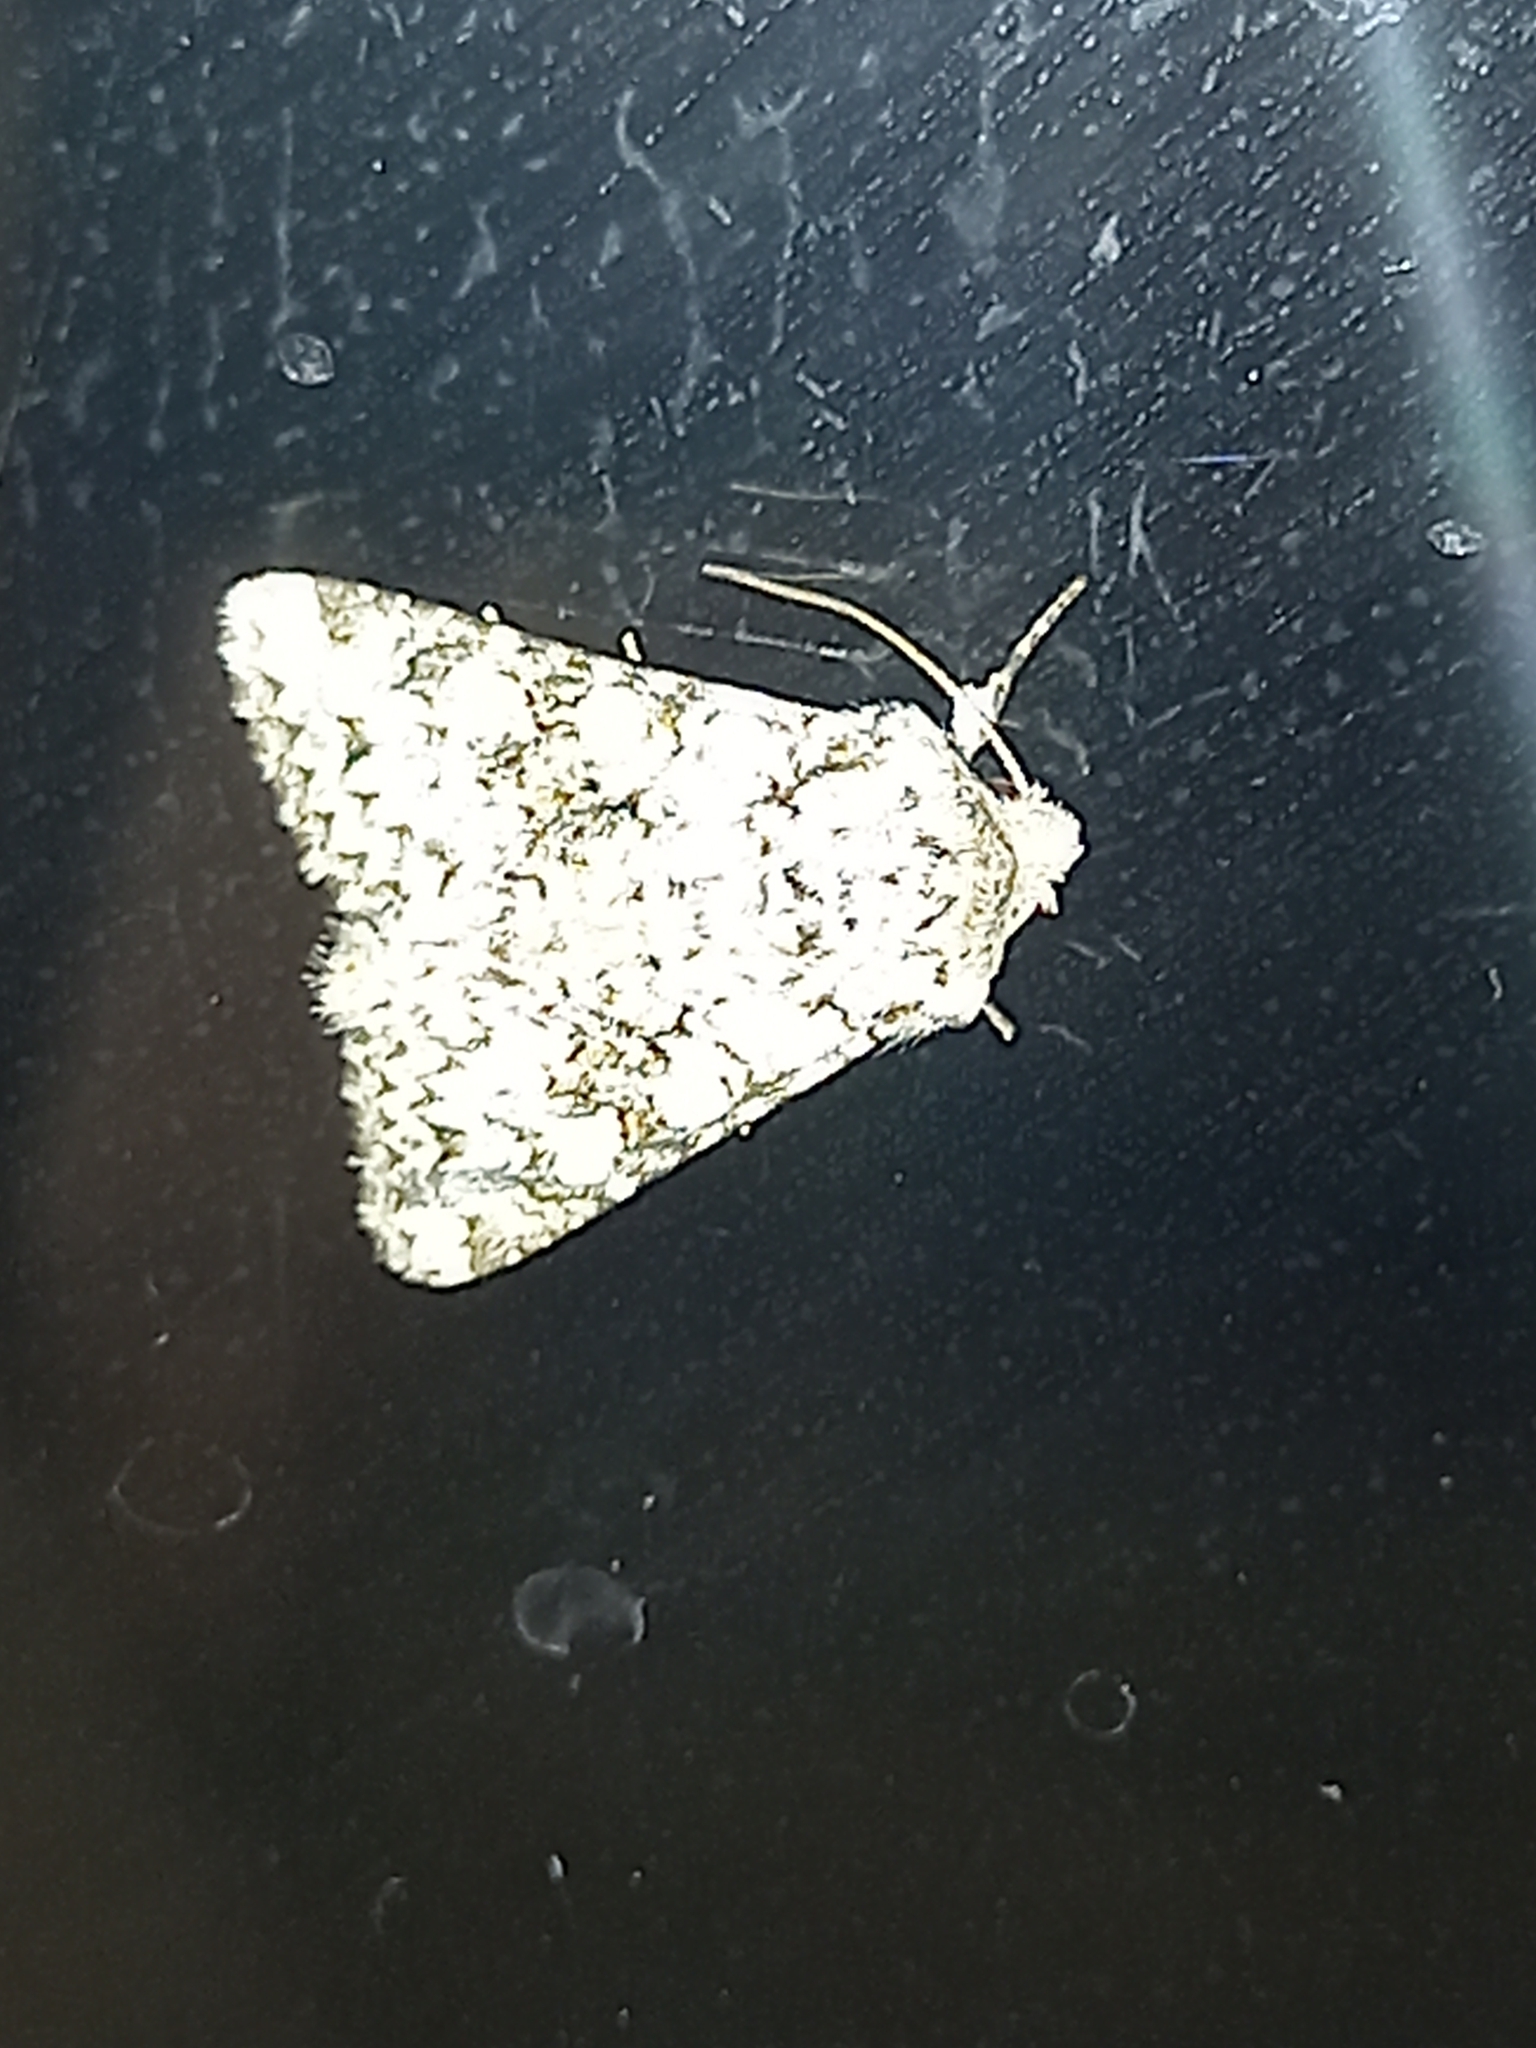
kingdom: Animalia
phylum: Arthropoda
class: Insecta
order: Lepidoptera
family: Noctuidae
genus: Hecatera
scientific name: Hecatera weissi
